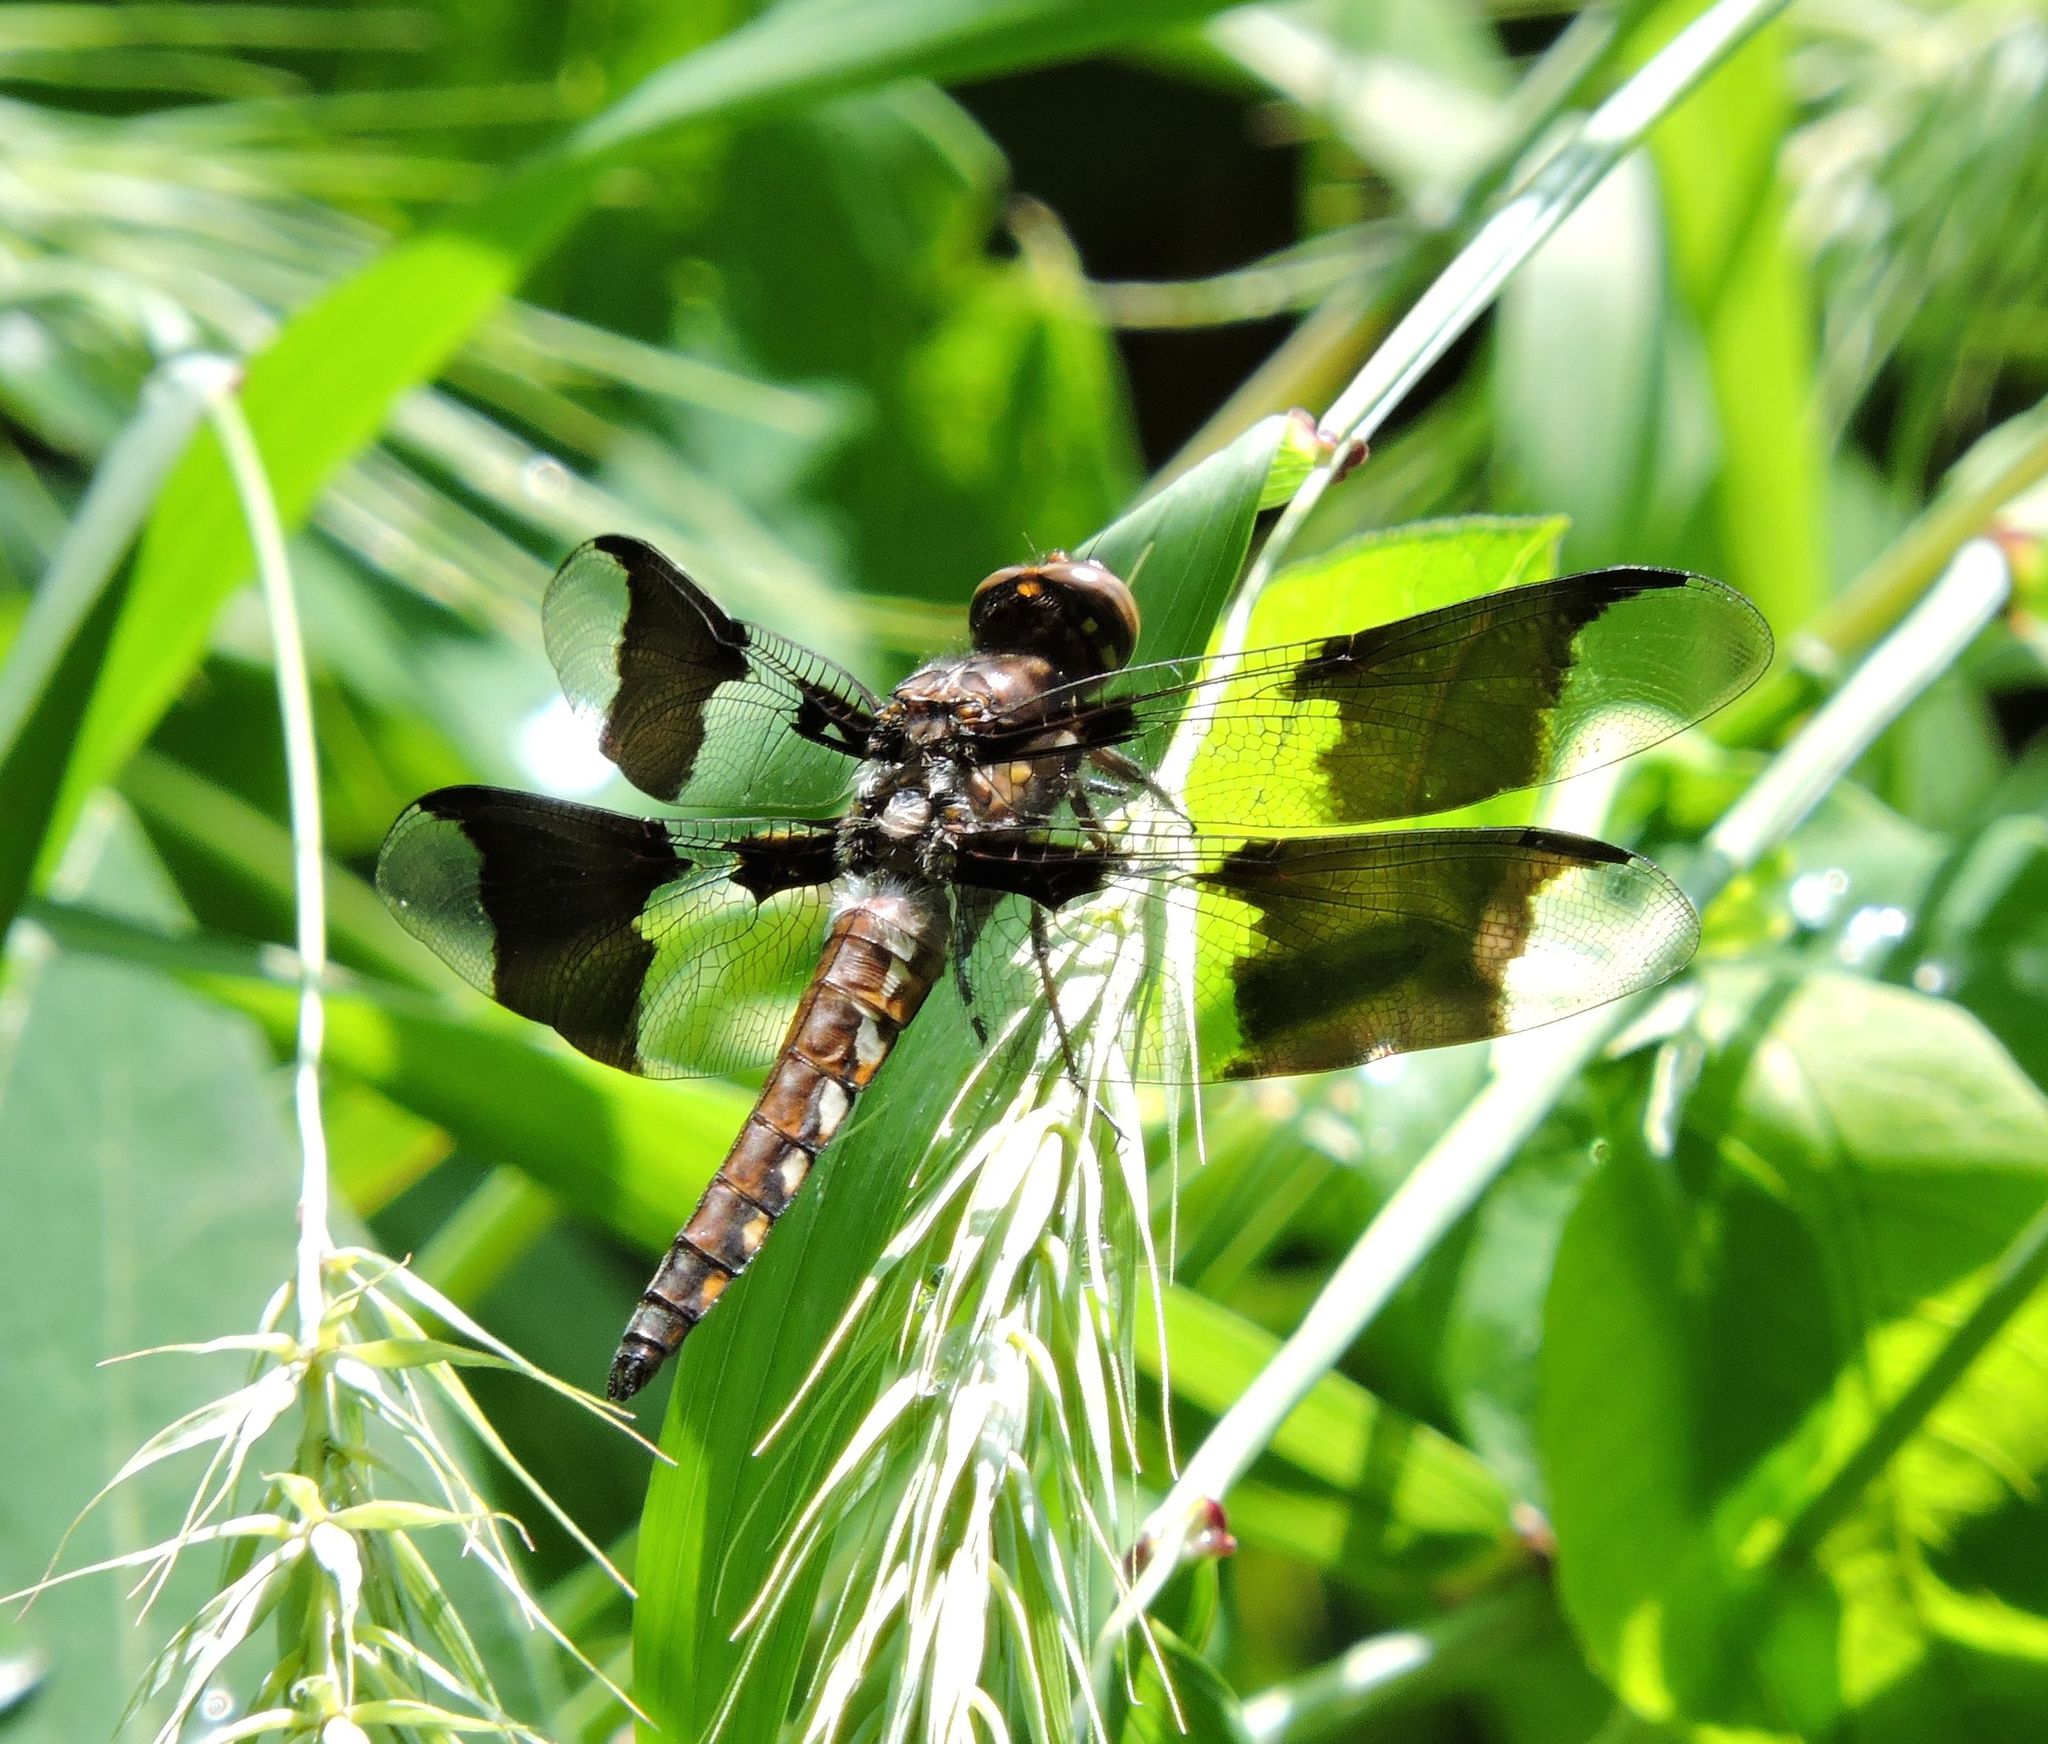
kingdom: Animalia
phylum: Arthropoda
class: Insecta
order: Odonata
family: Libellulidae
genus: Plathemis
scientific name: Plathemis lydia
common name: Common whitetail
